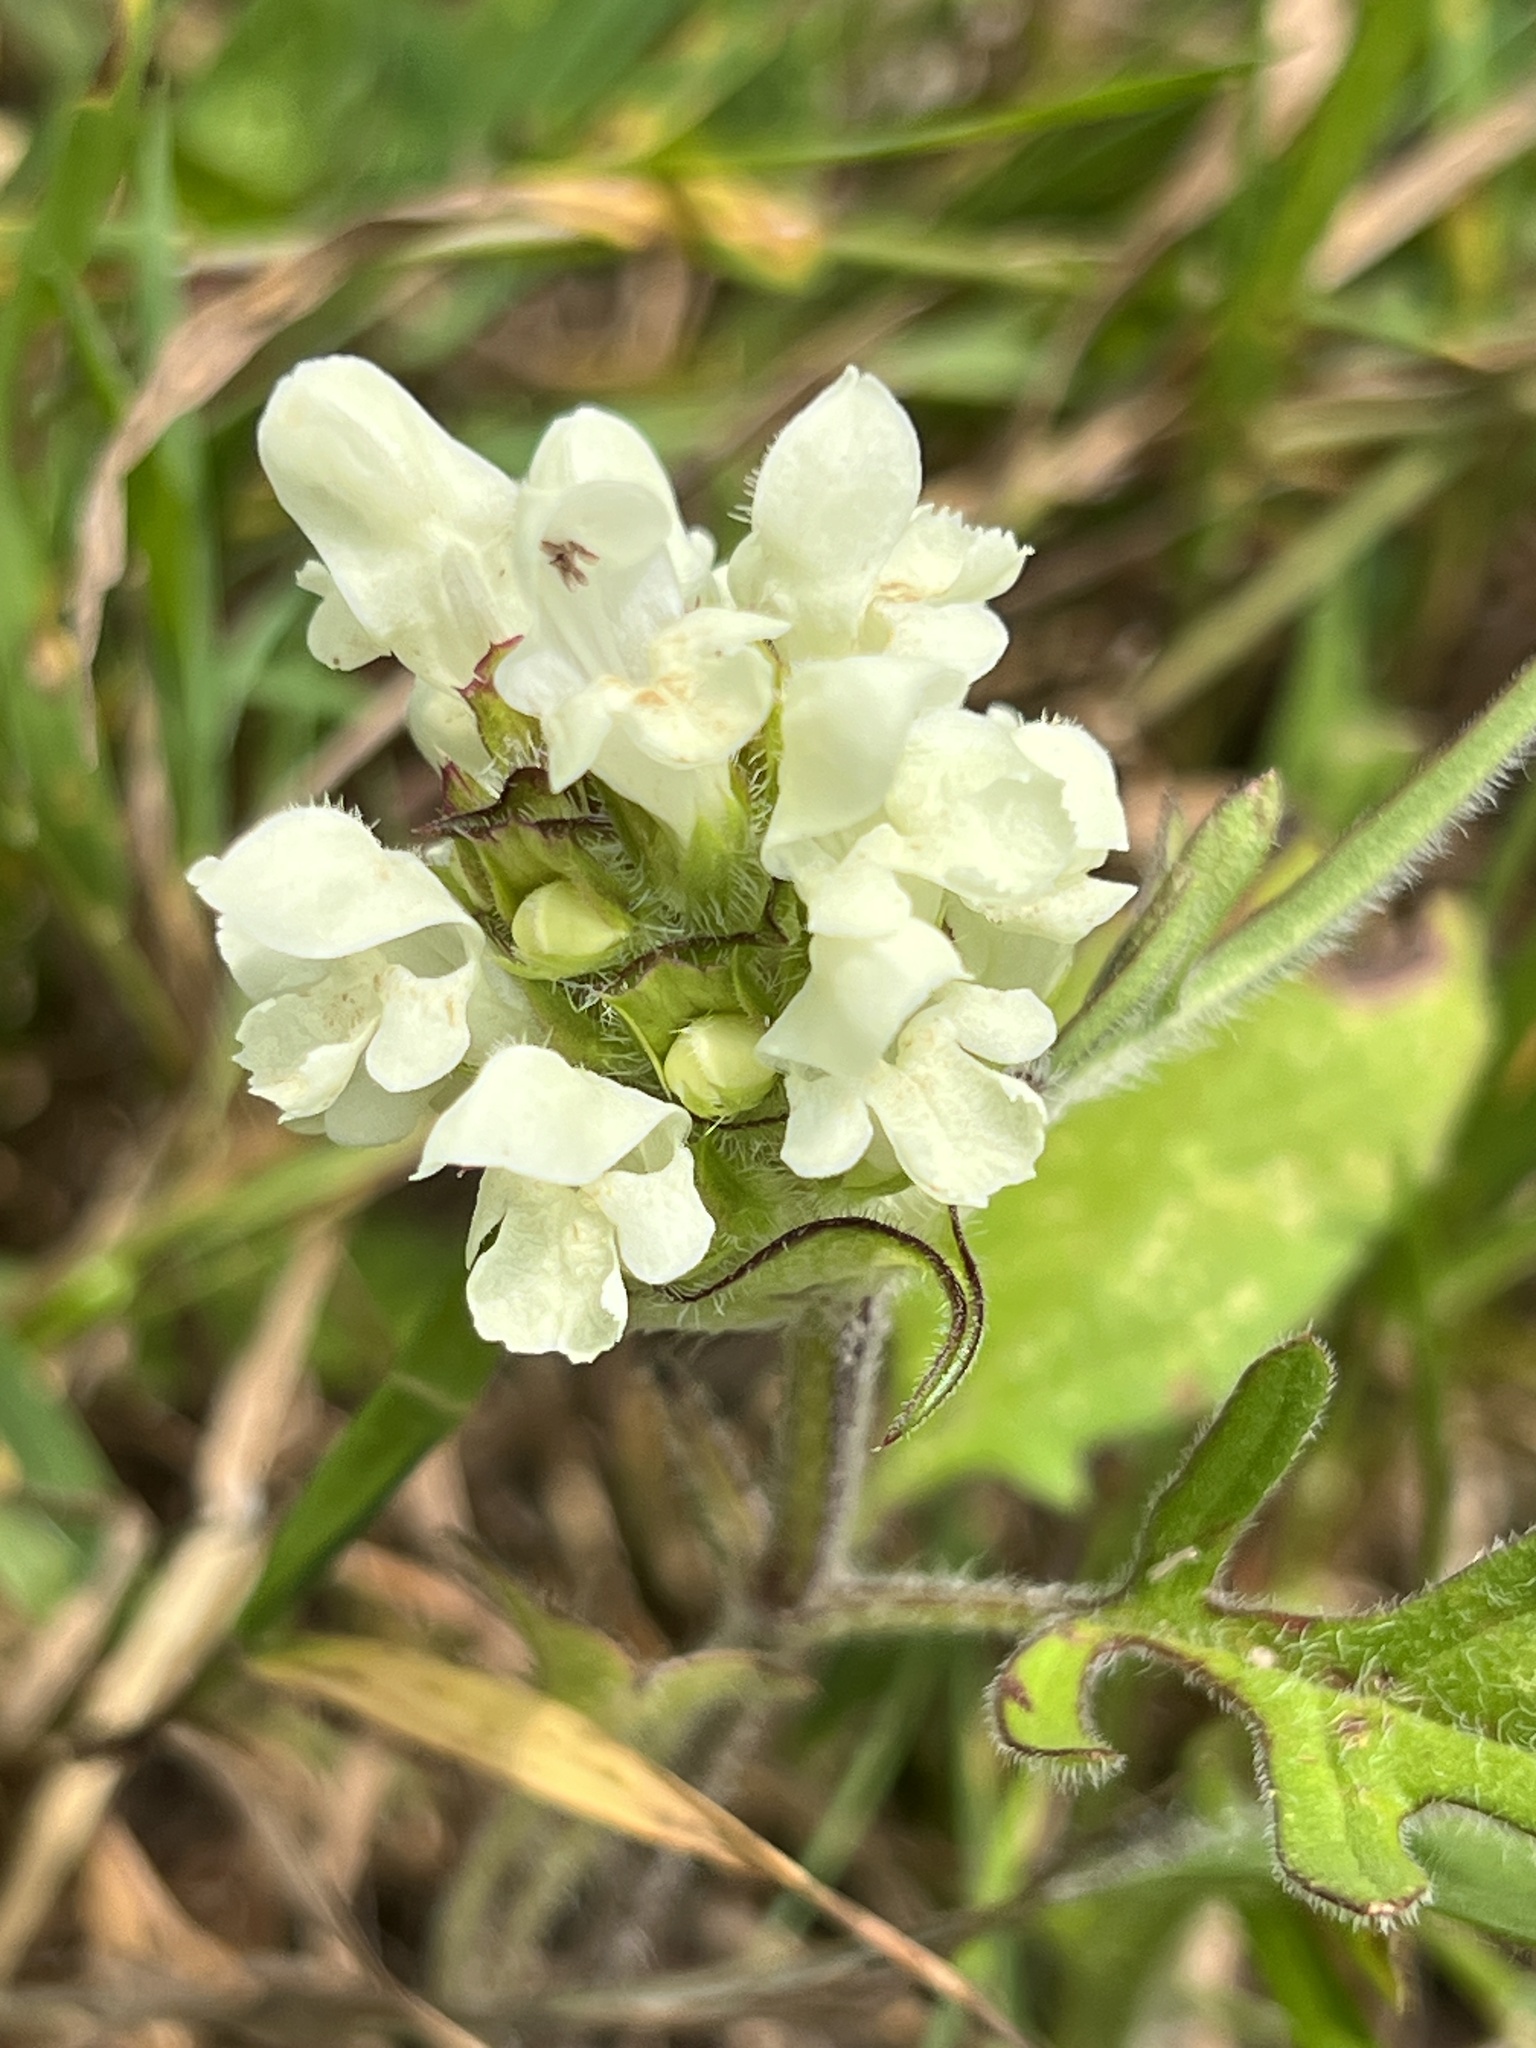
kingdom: Plantae
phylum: Tracheophyta
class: Magnoliopsida
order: Lamiales
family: Lamiaceae
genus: Prunella
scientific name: Prunella laciniata
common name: Cut-leaved selfheal
